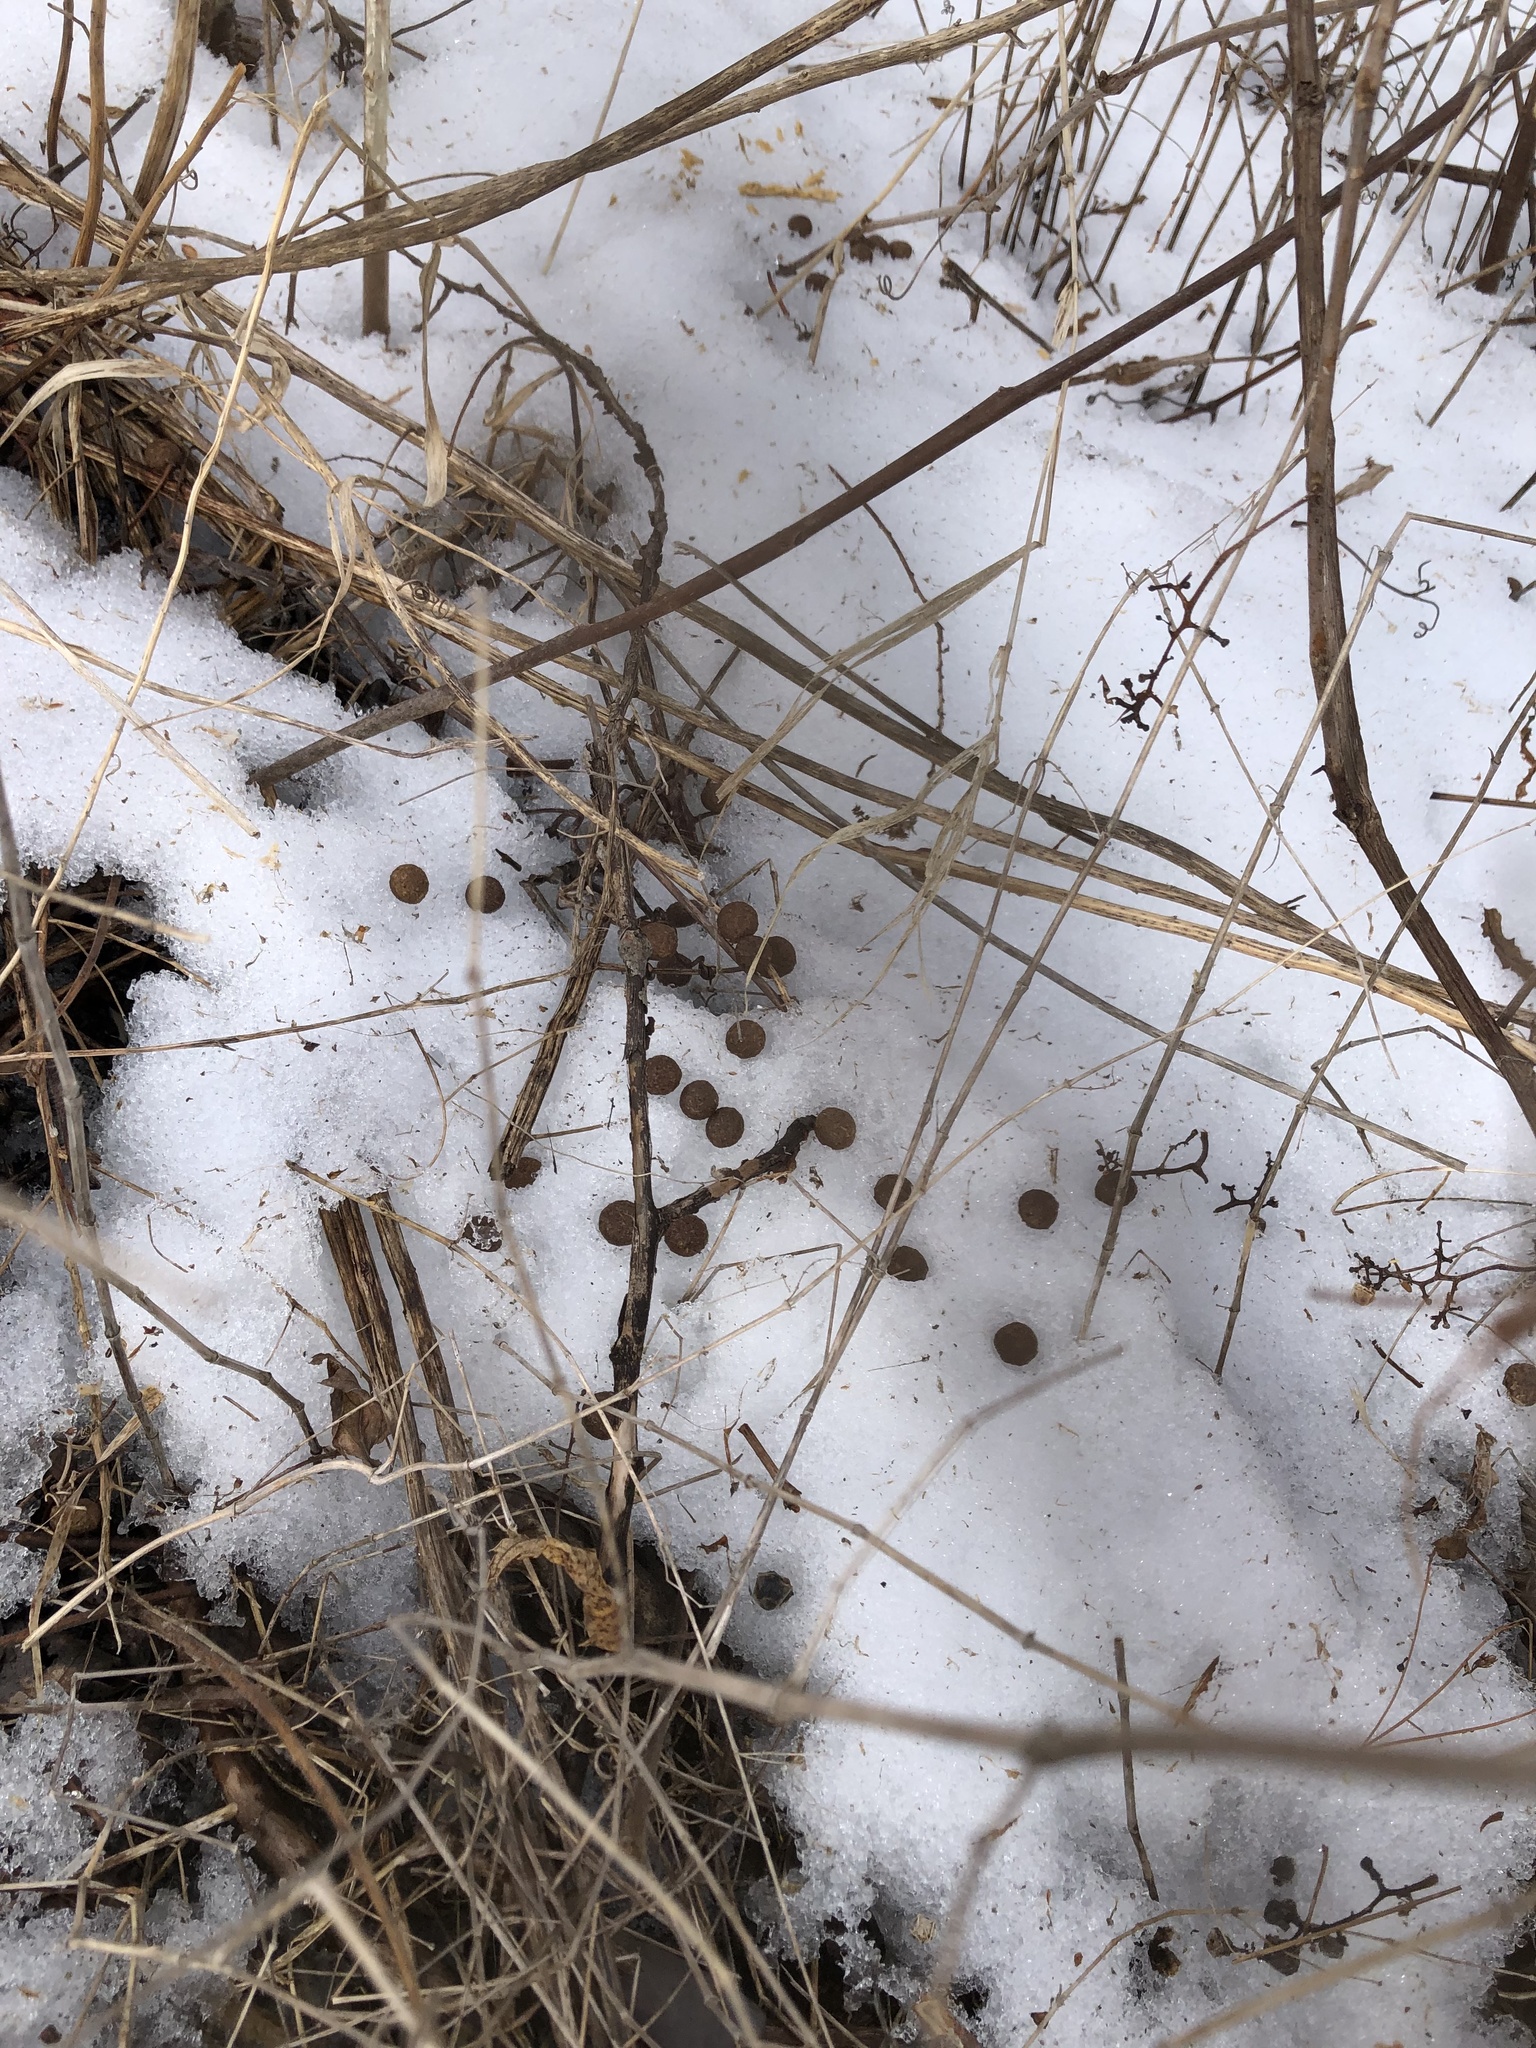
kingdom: Animalia
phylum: Chordata
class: Mammalia
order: Lagomorpha
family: Leporidae
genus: Sylvilagus
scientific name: Sylvilagus floridanus
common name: Eastern cottontail
